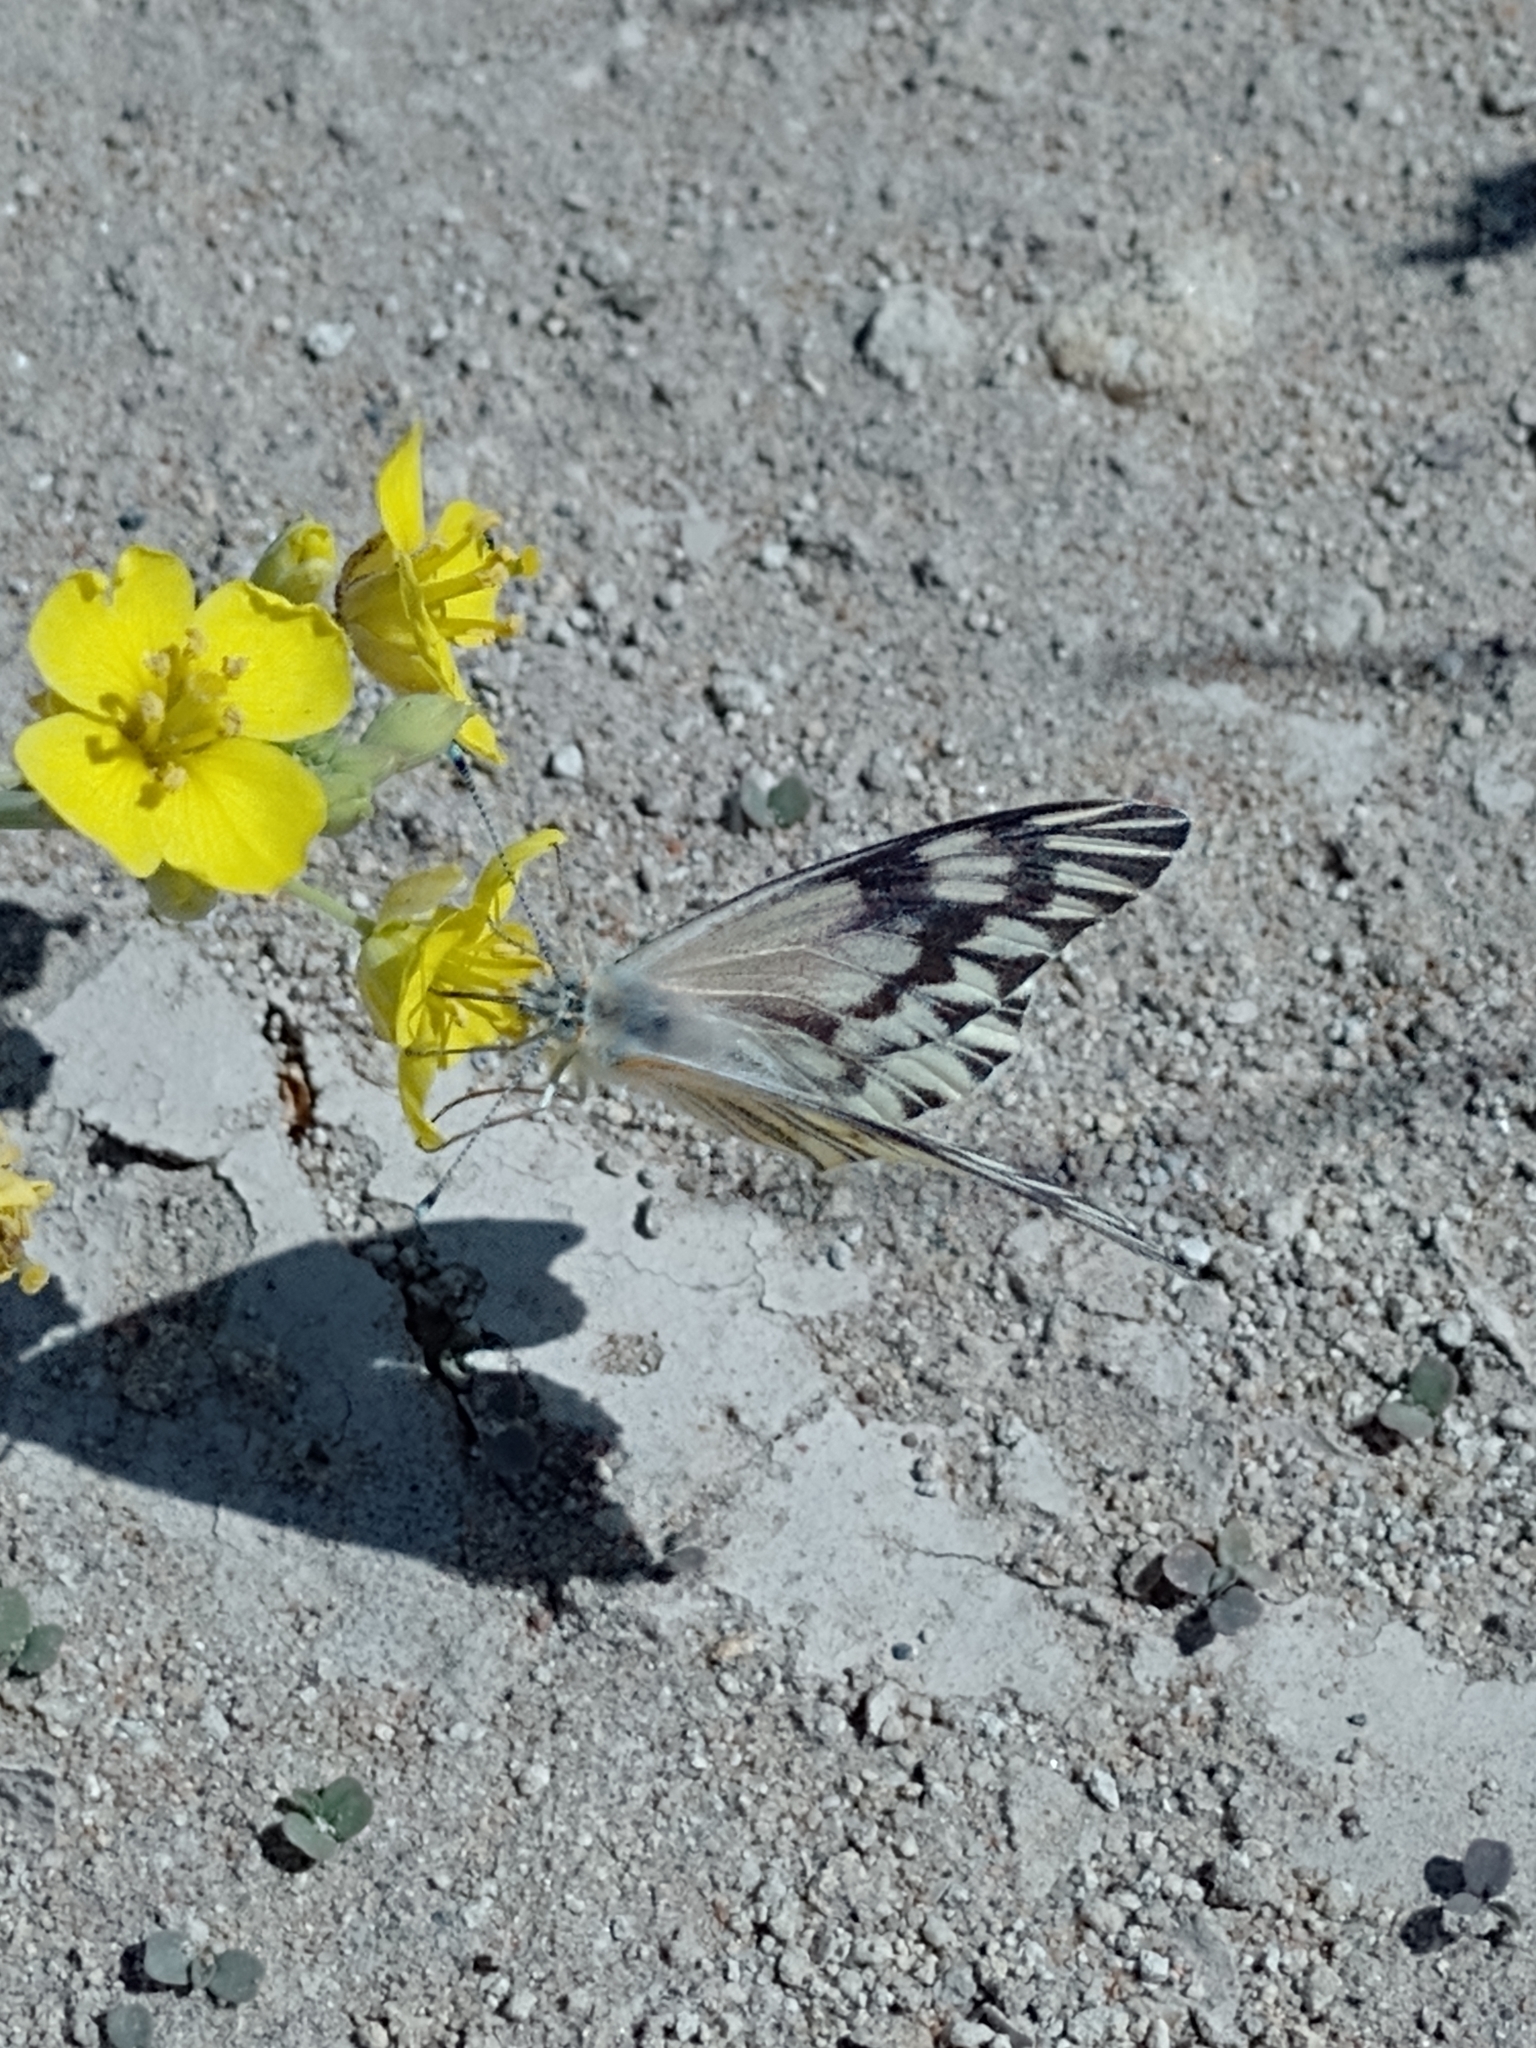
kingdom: Animalia
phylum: Arthropoda
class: Insecta
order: Lepidoptera
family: Pieridae
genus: Tatochila
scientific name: Tatochila mercedis
